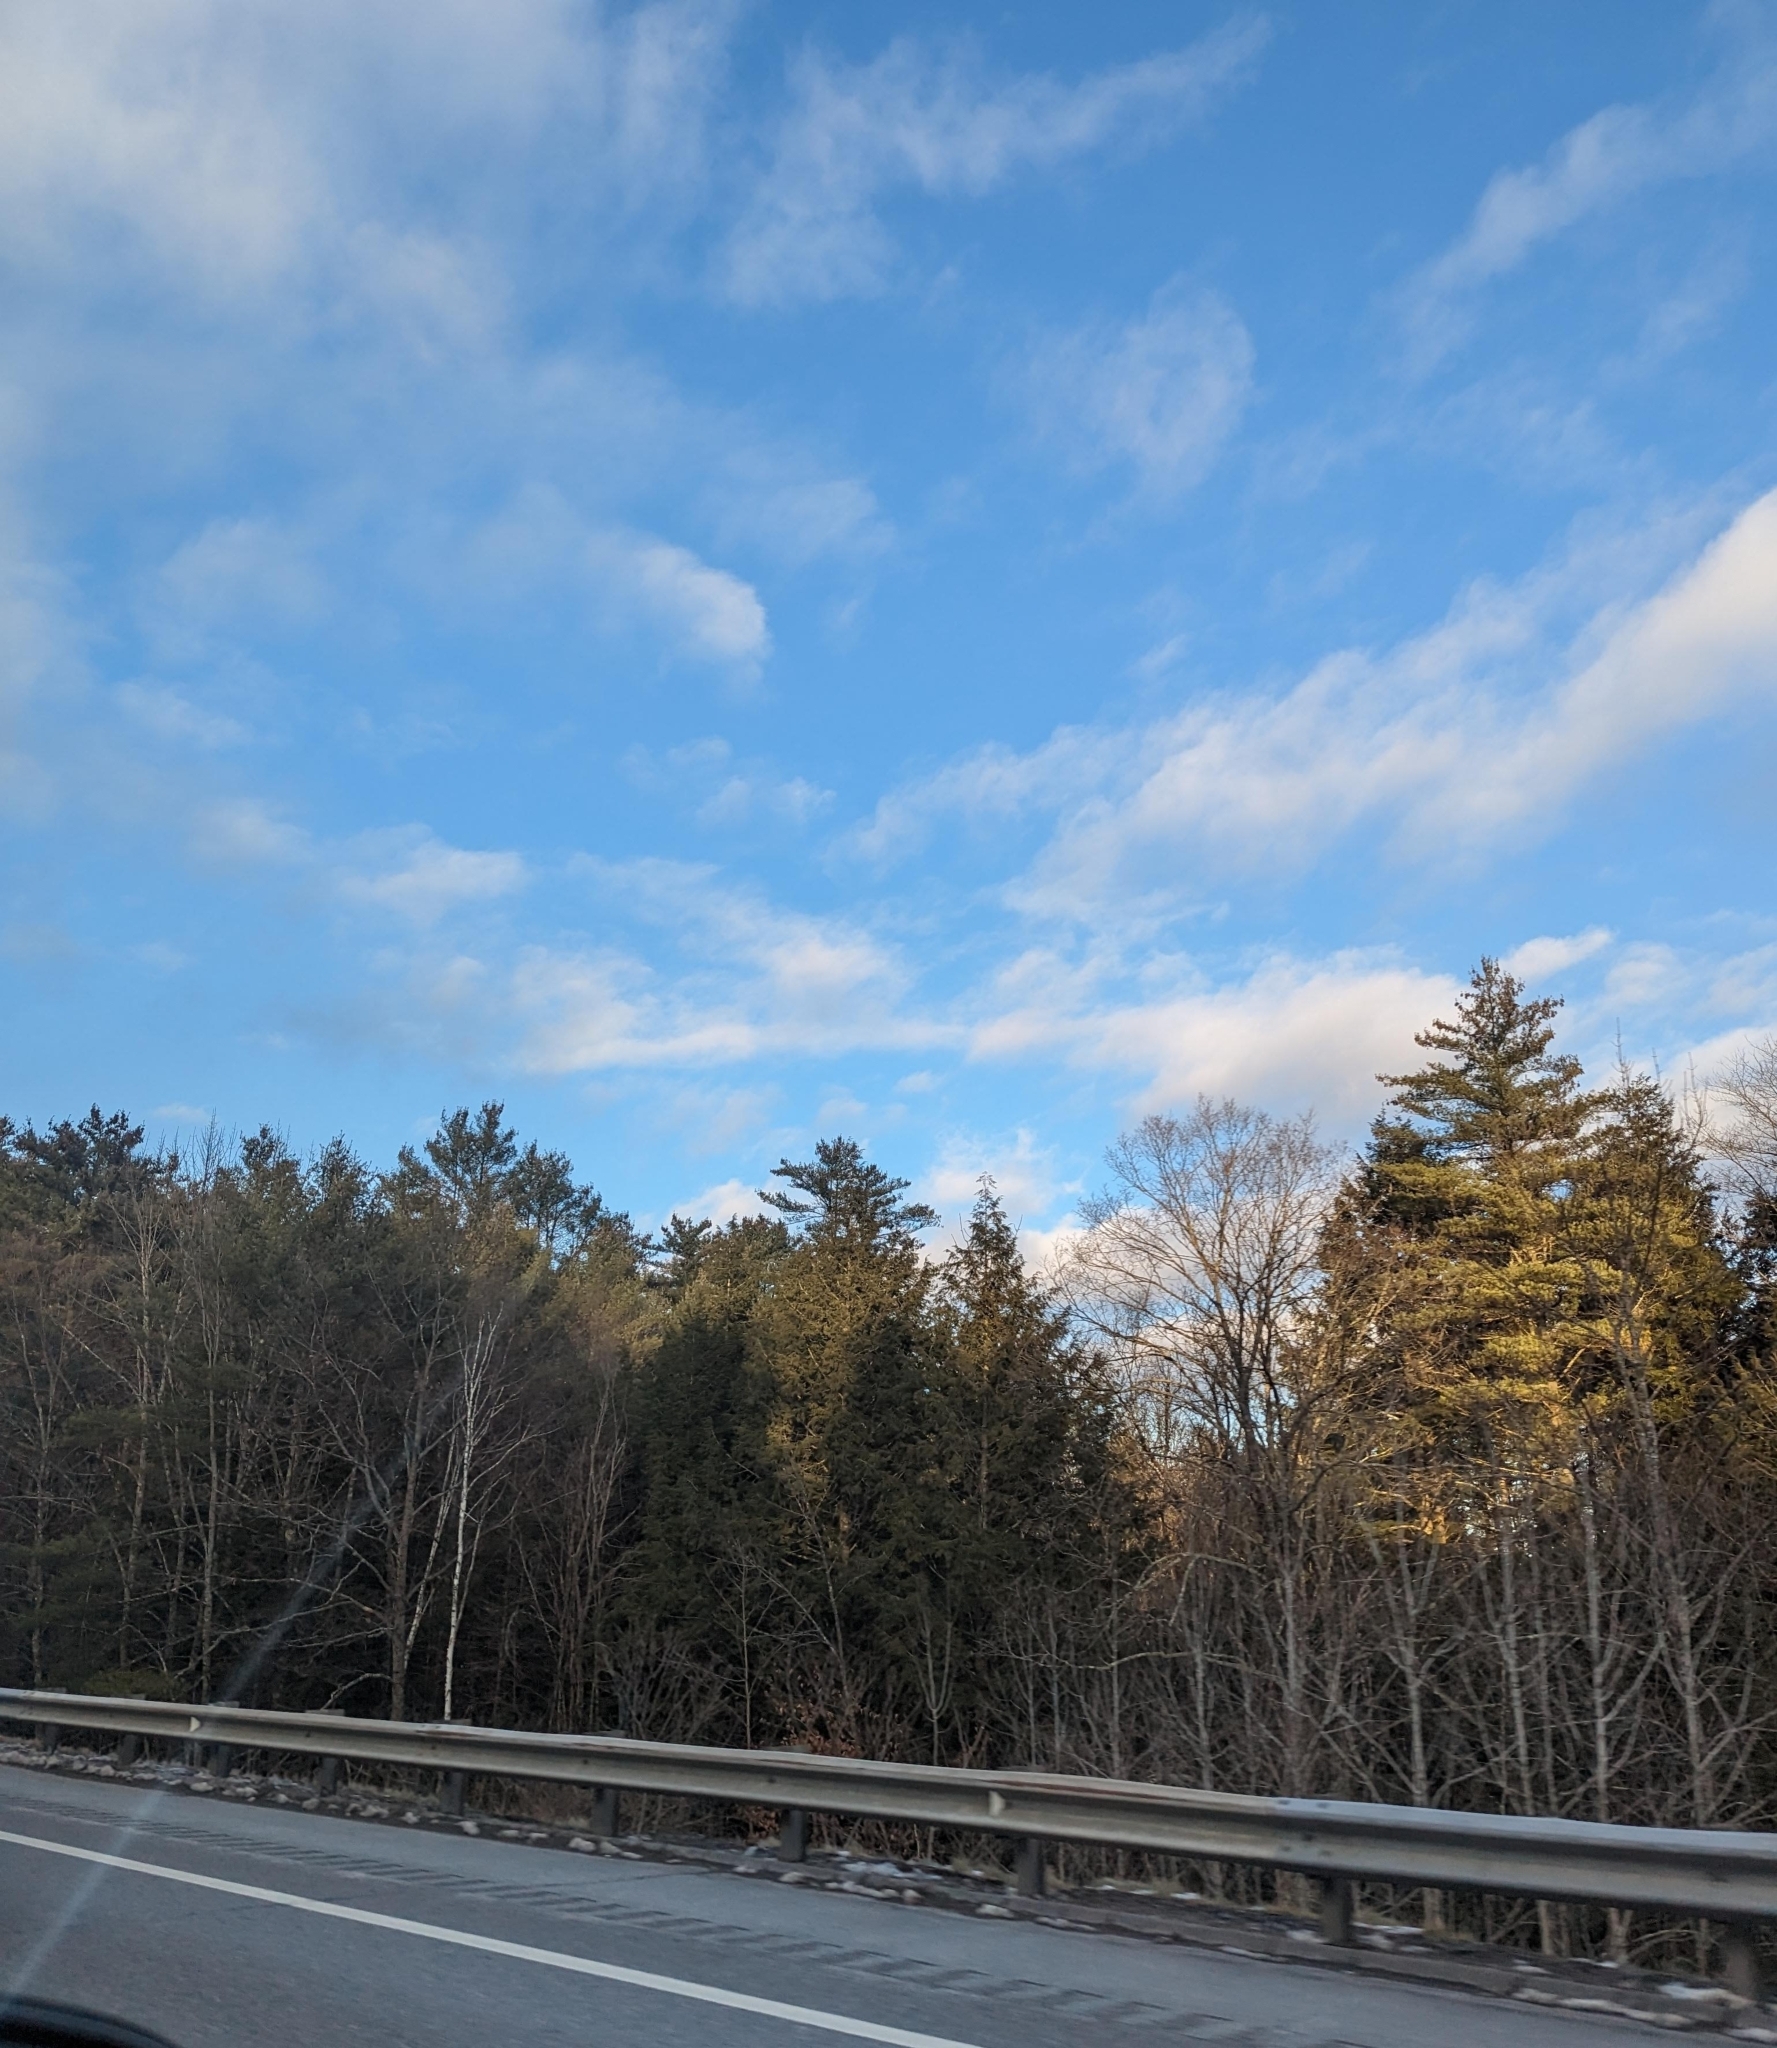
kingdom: Plantae
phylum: Tracheophyta
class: Pinopsida
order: Pinales
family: Pinaceae
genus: Pinus
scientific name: Pinus strobus
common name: Weymouth pine
